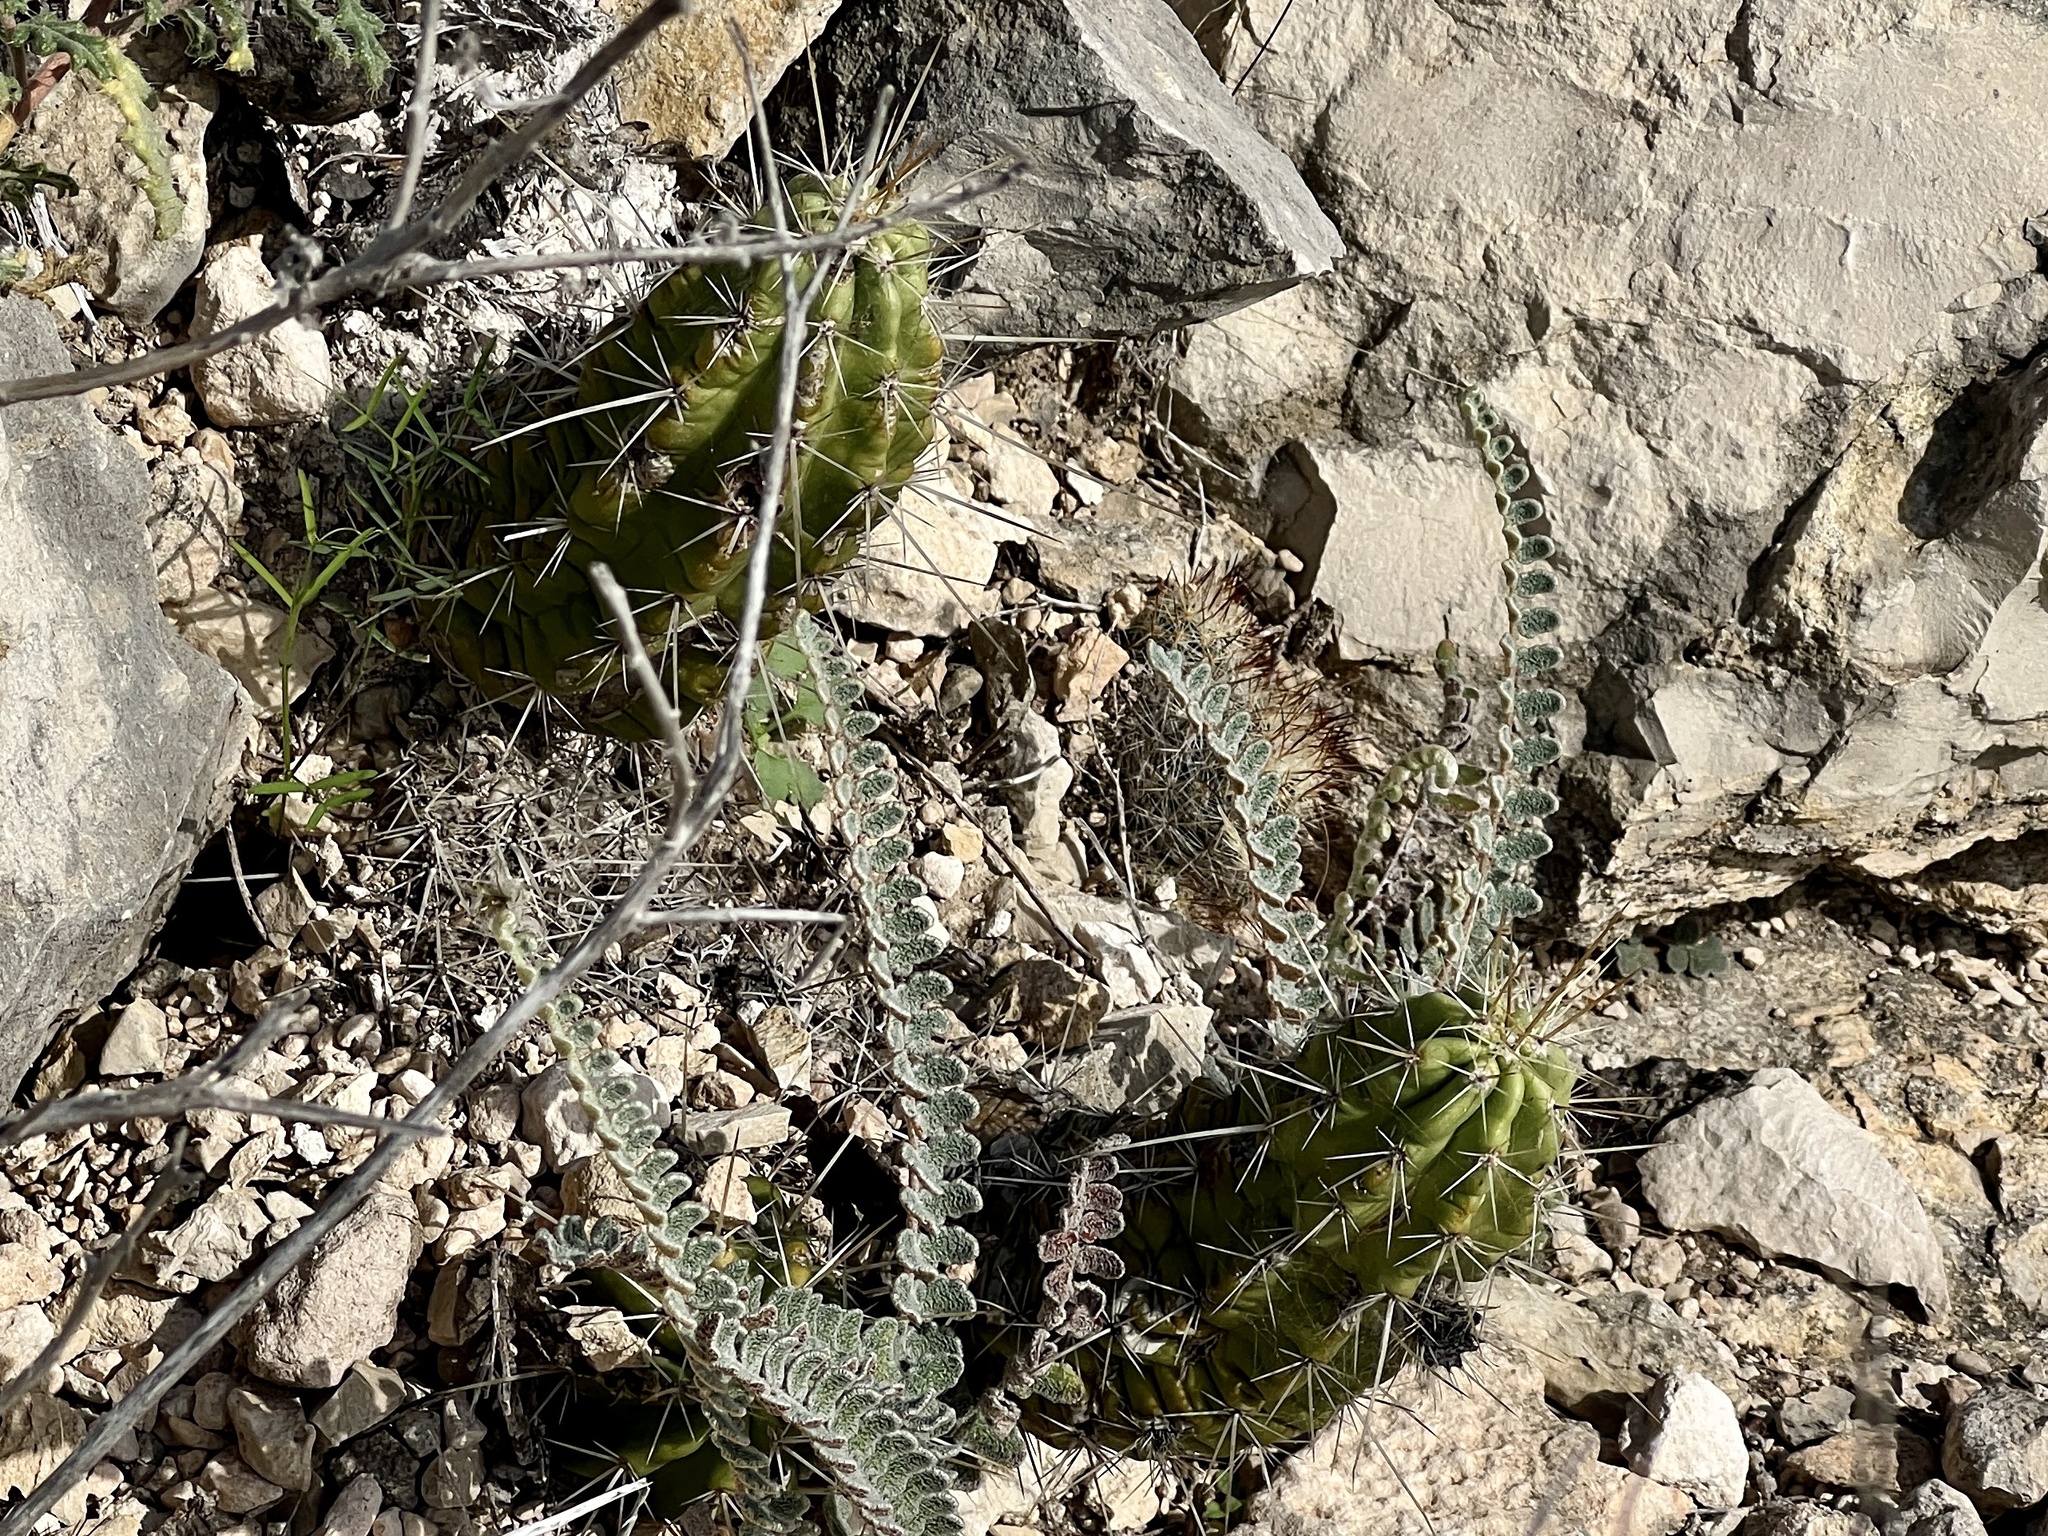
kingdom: Plantae
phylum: Tracheophyta
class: Magnoliopsida
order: Caryophyllales
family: Cactaceae
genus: Echinocereus
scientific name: Echinocereus enneacanthus
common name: Pitaya
